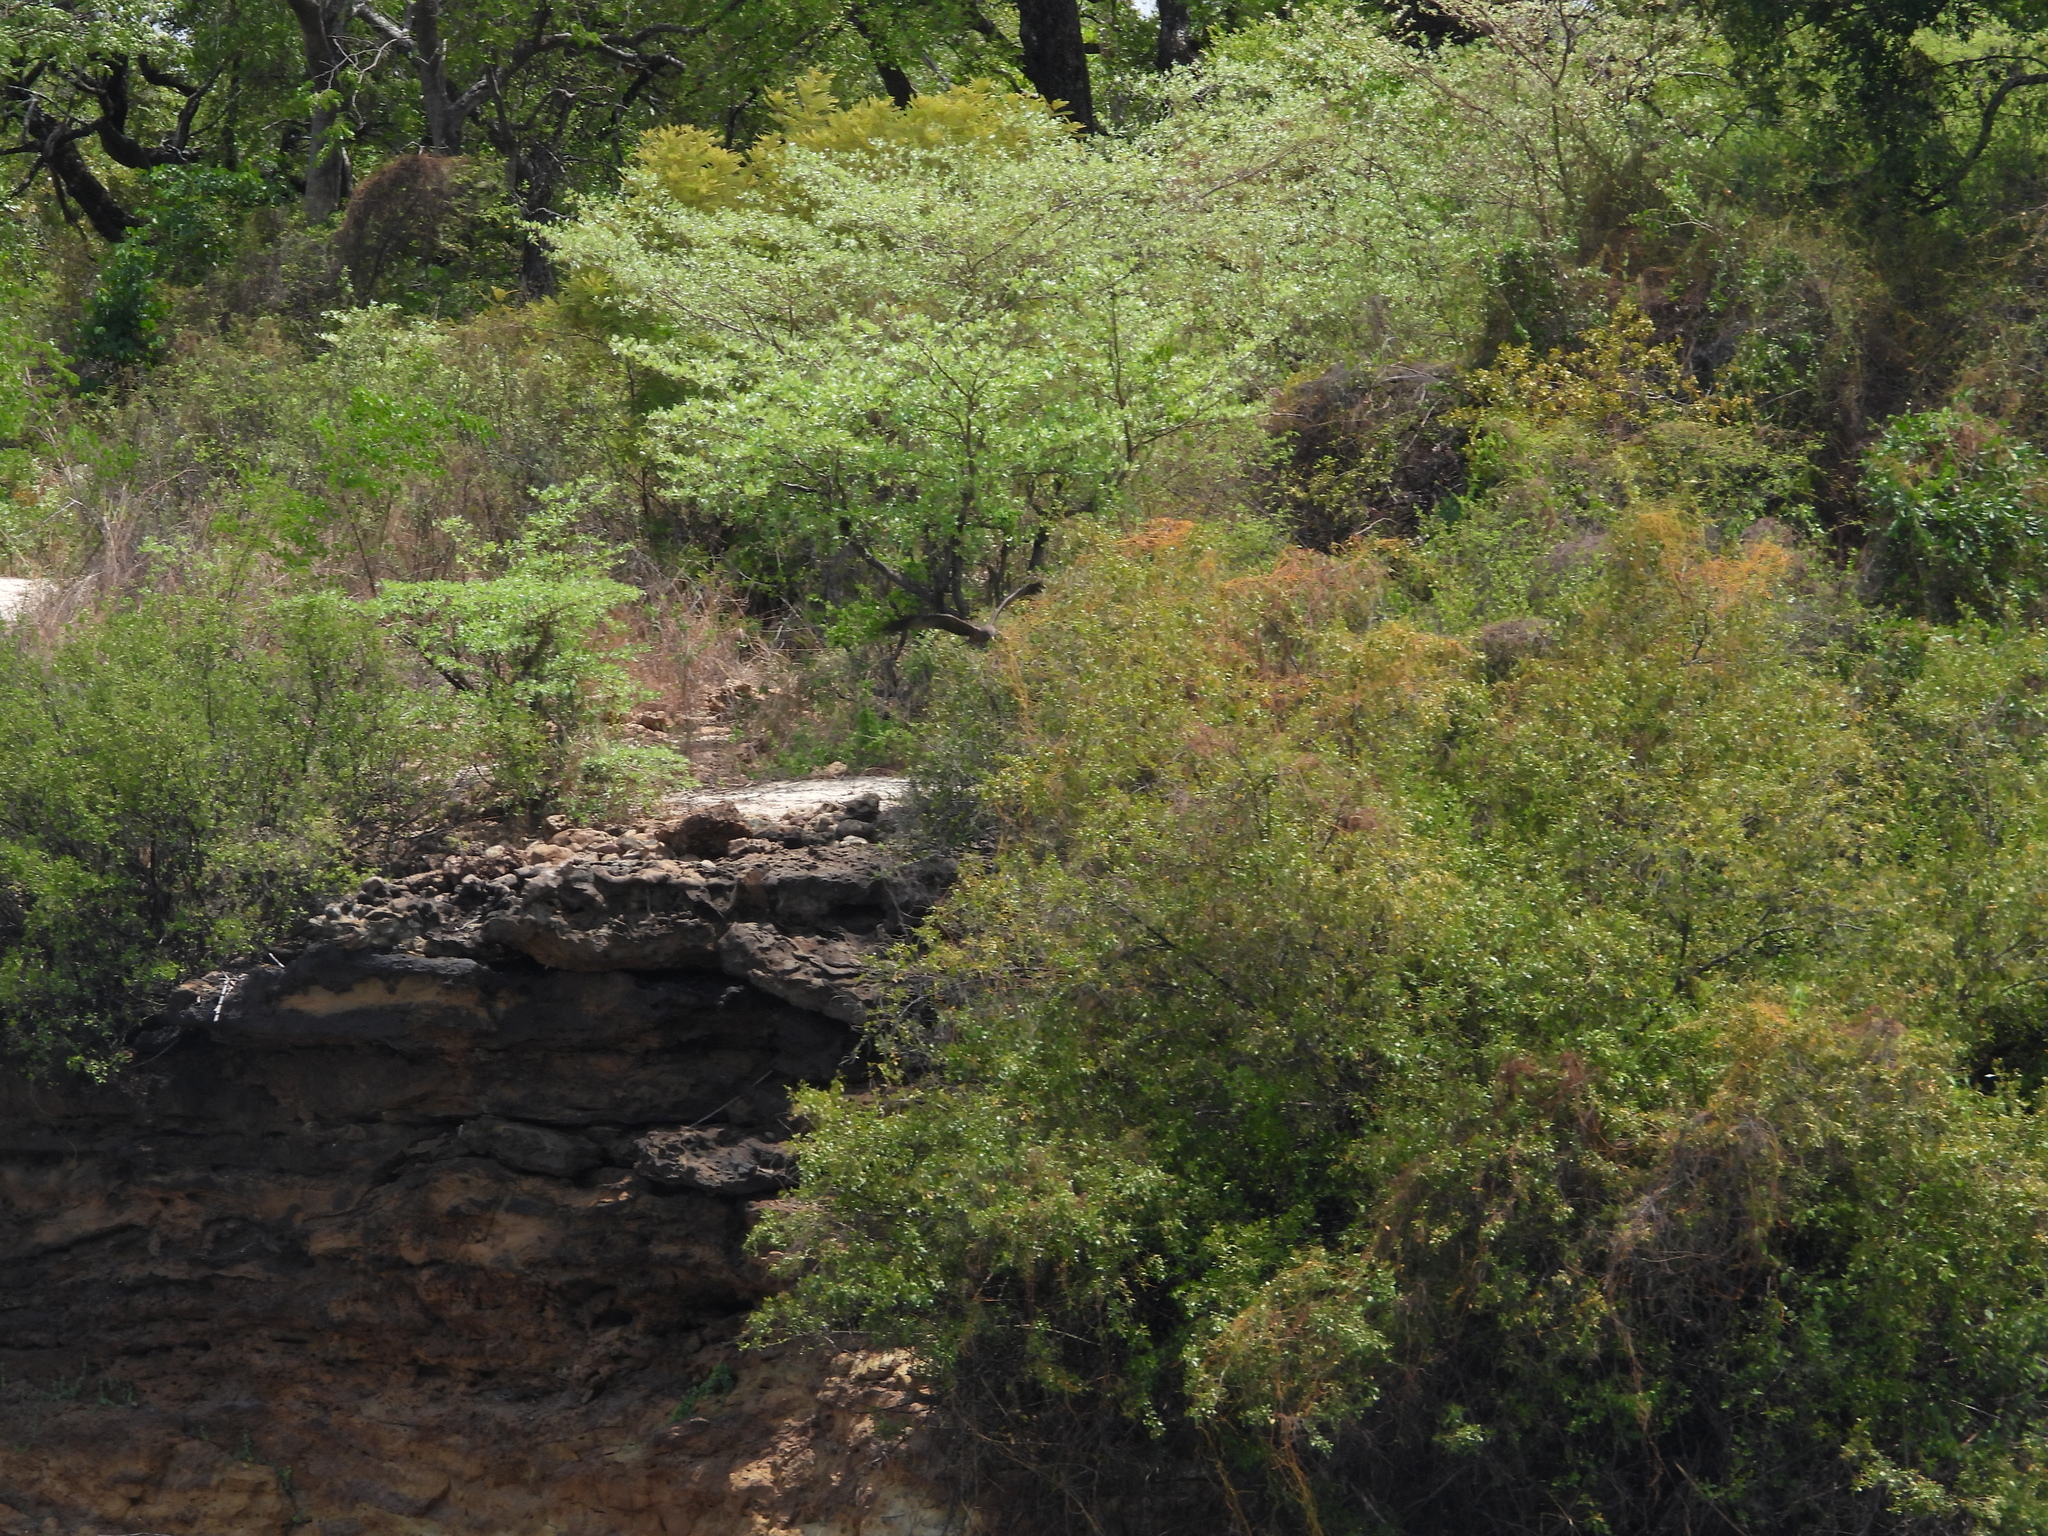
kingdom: Animalia
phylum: Chordata
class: Aves
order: Accipitriformes
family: Accipitridae
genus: Milvus
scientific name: Milvus migrans
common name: Black kite
